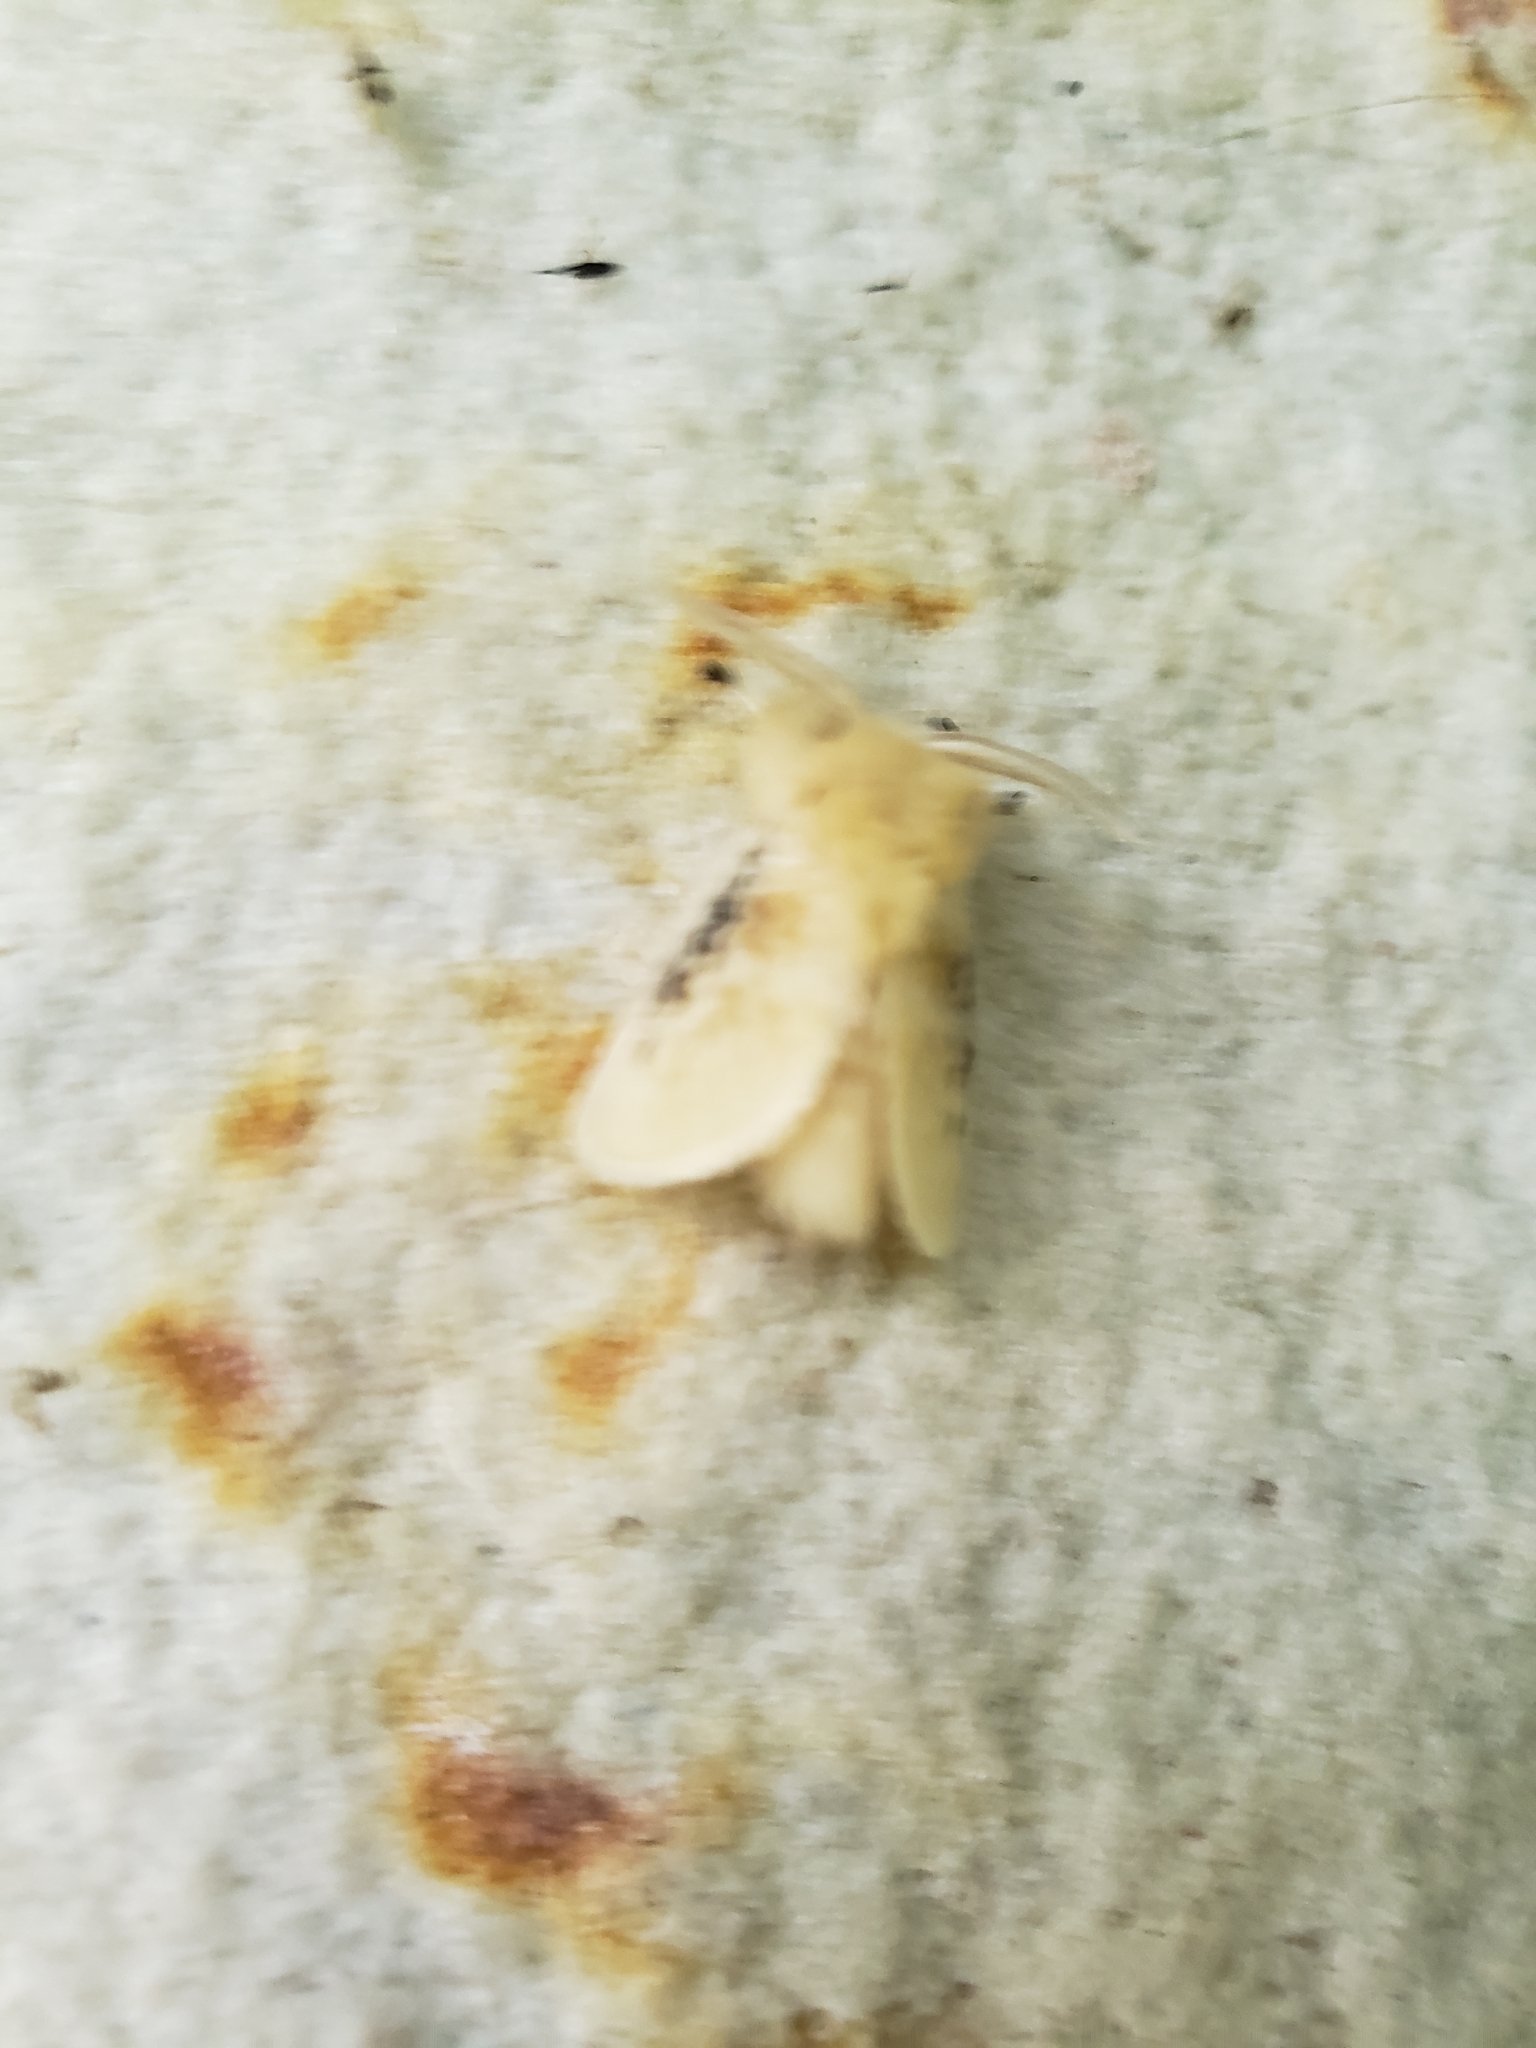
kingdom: Animalia
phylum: Arthropoda
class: Insecta
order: Lepidoptera
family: Megalopygidae
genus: Megalopyge
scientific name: Megalopyge crispata
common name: Black-waved flannel moth
